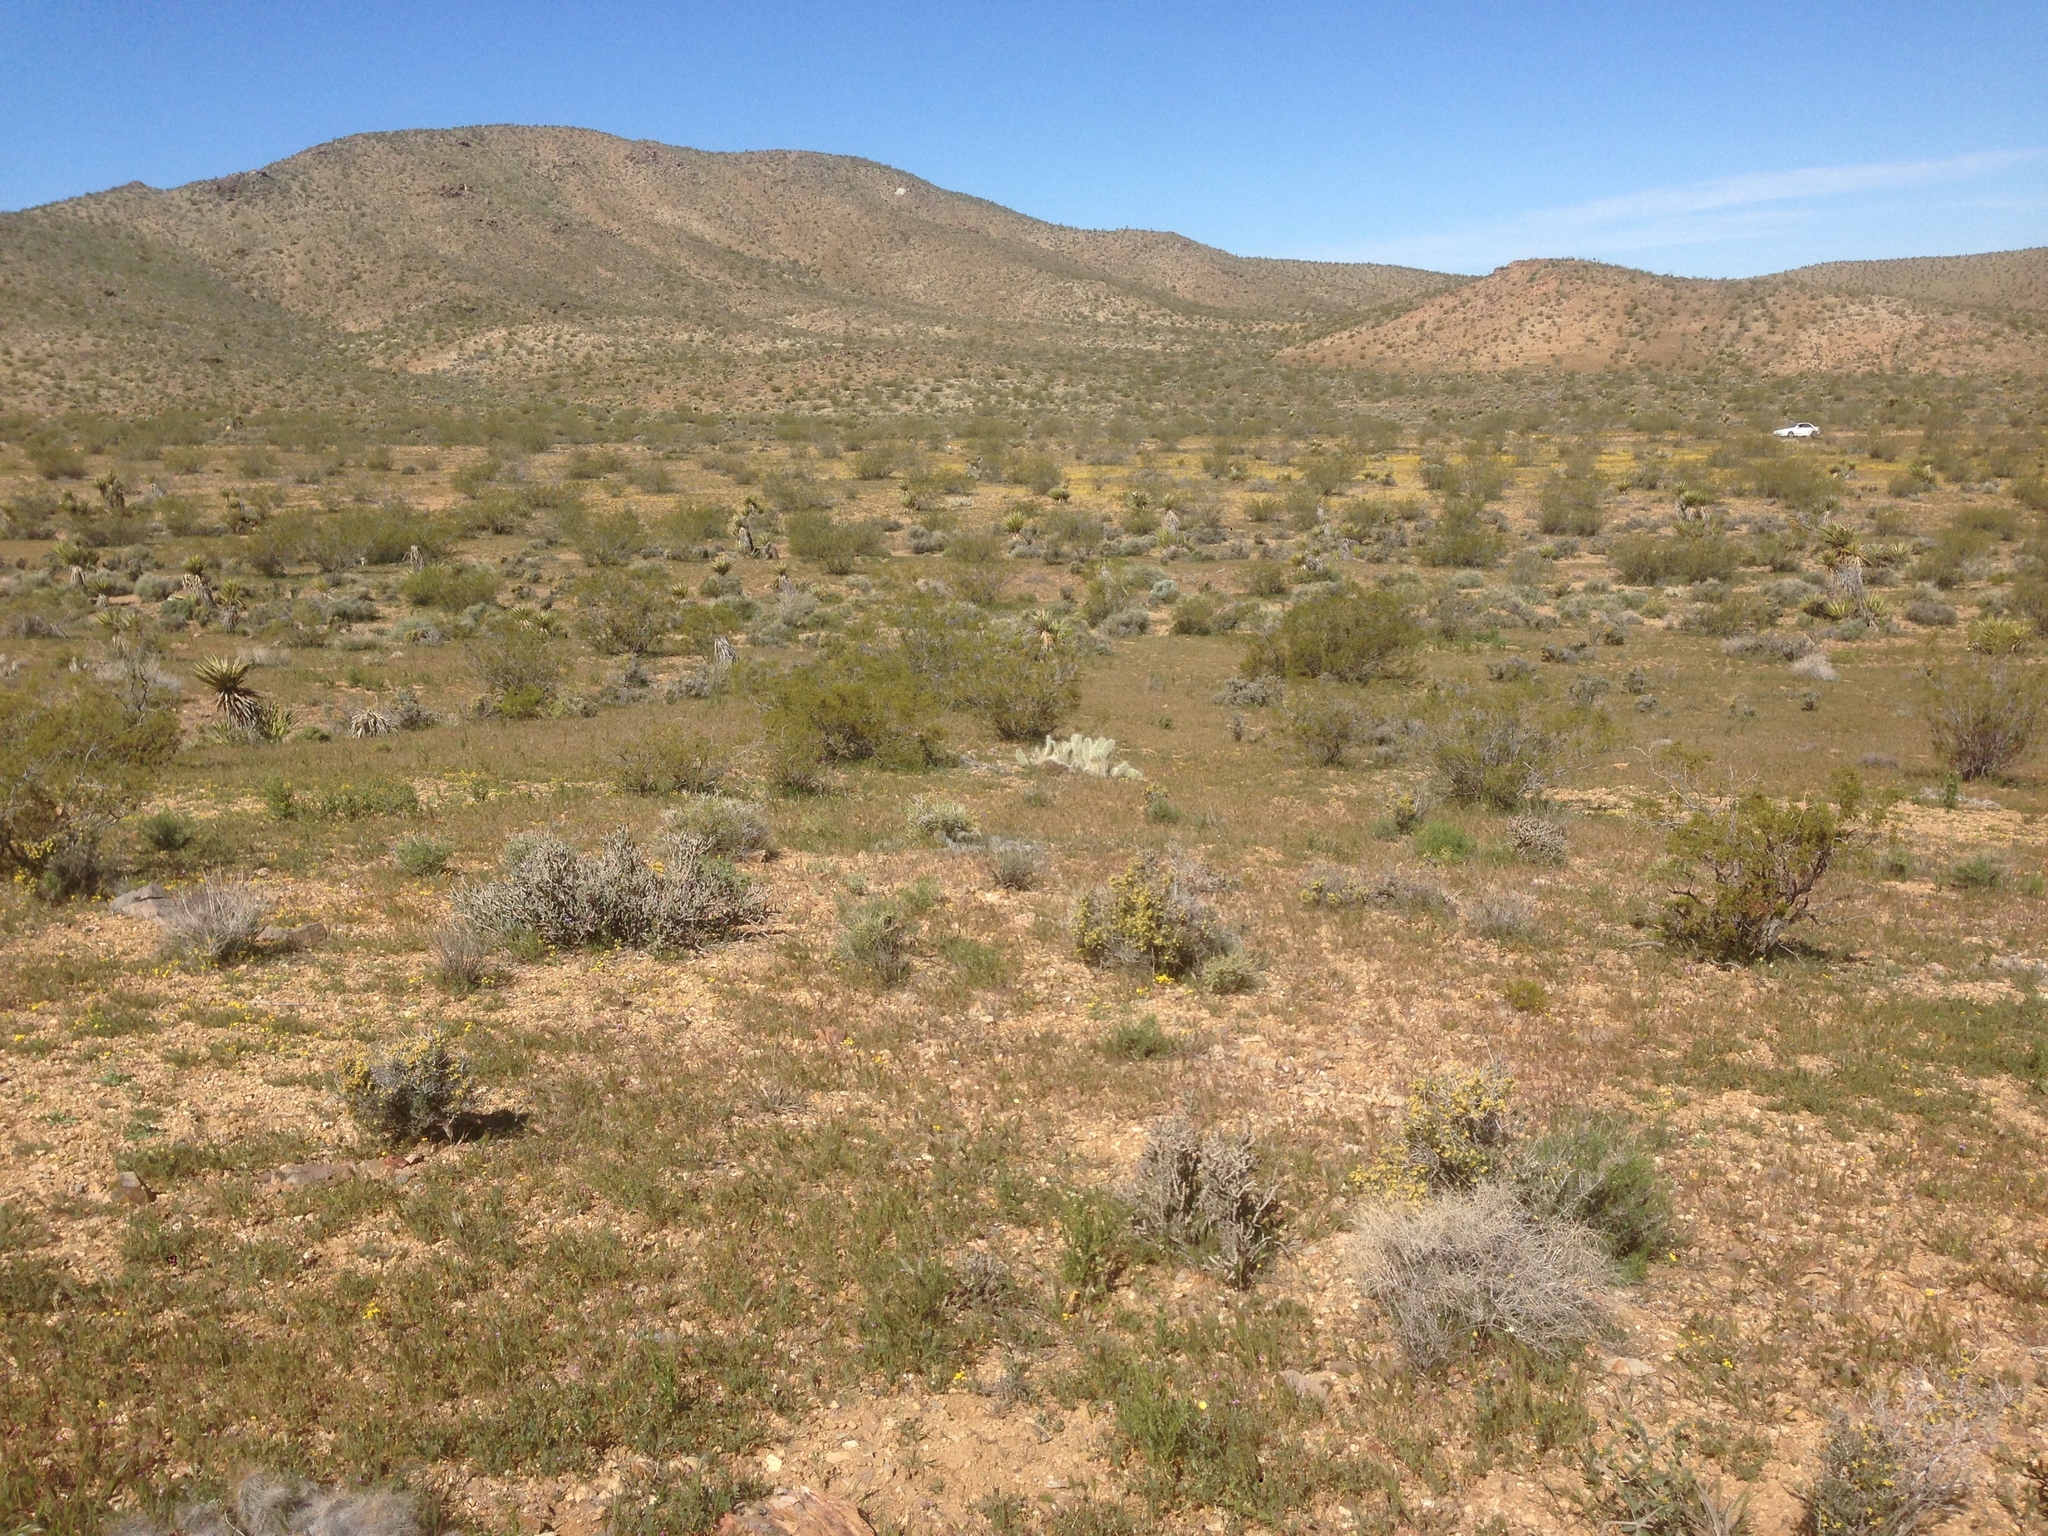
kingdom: Plantae
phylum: Tracheophyta
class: Magnoliopsida
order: Zygophyllales
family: Zygophyllaceae
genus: Larrea
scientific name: Larrea tridentata
